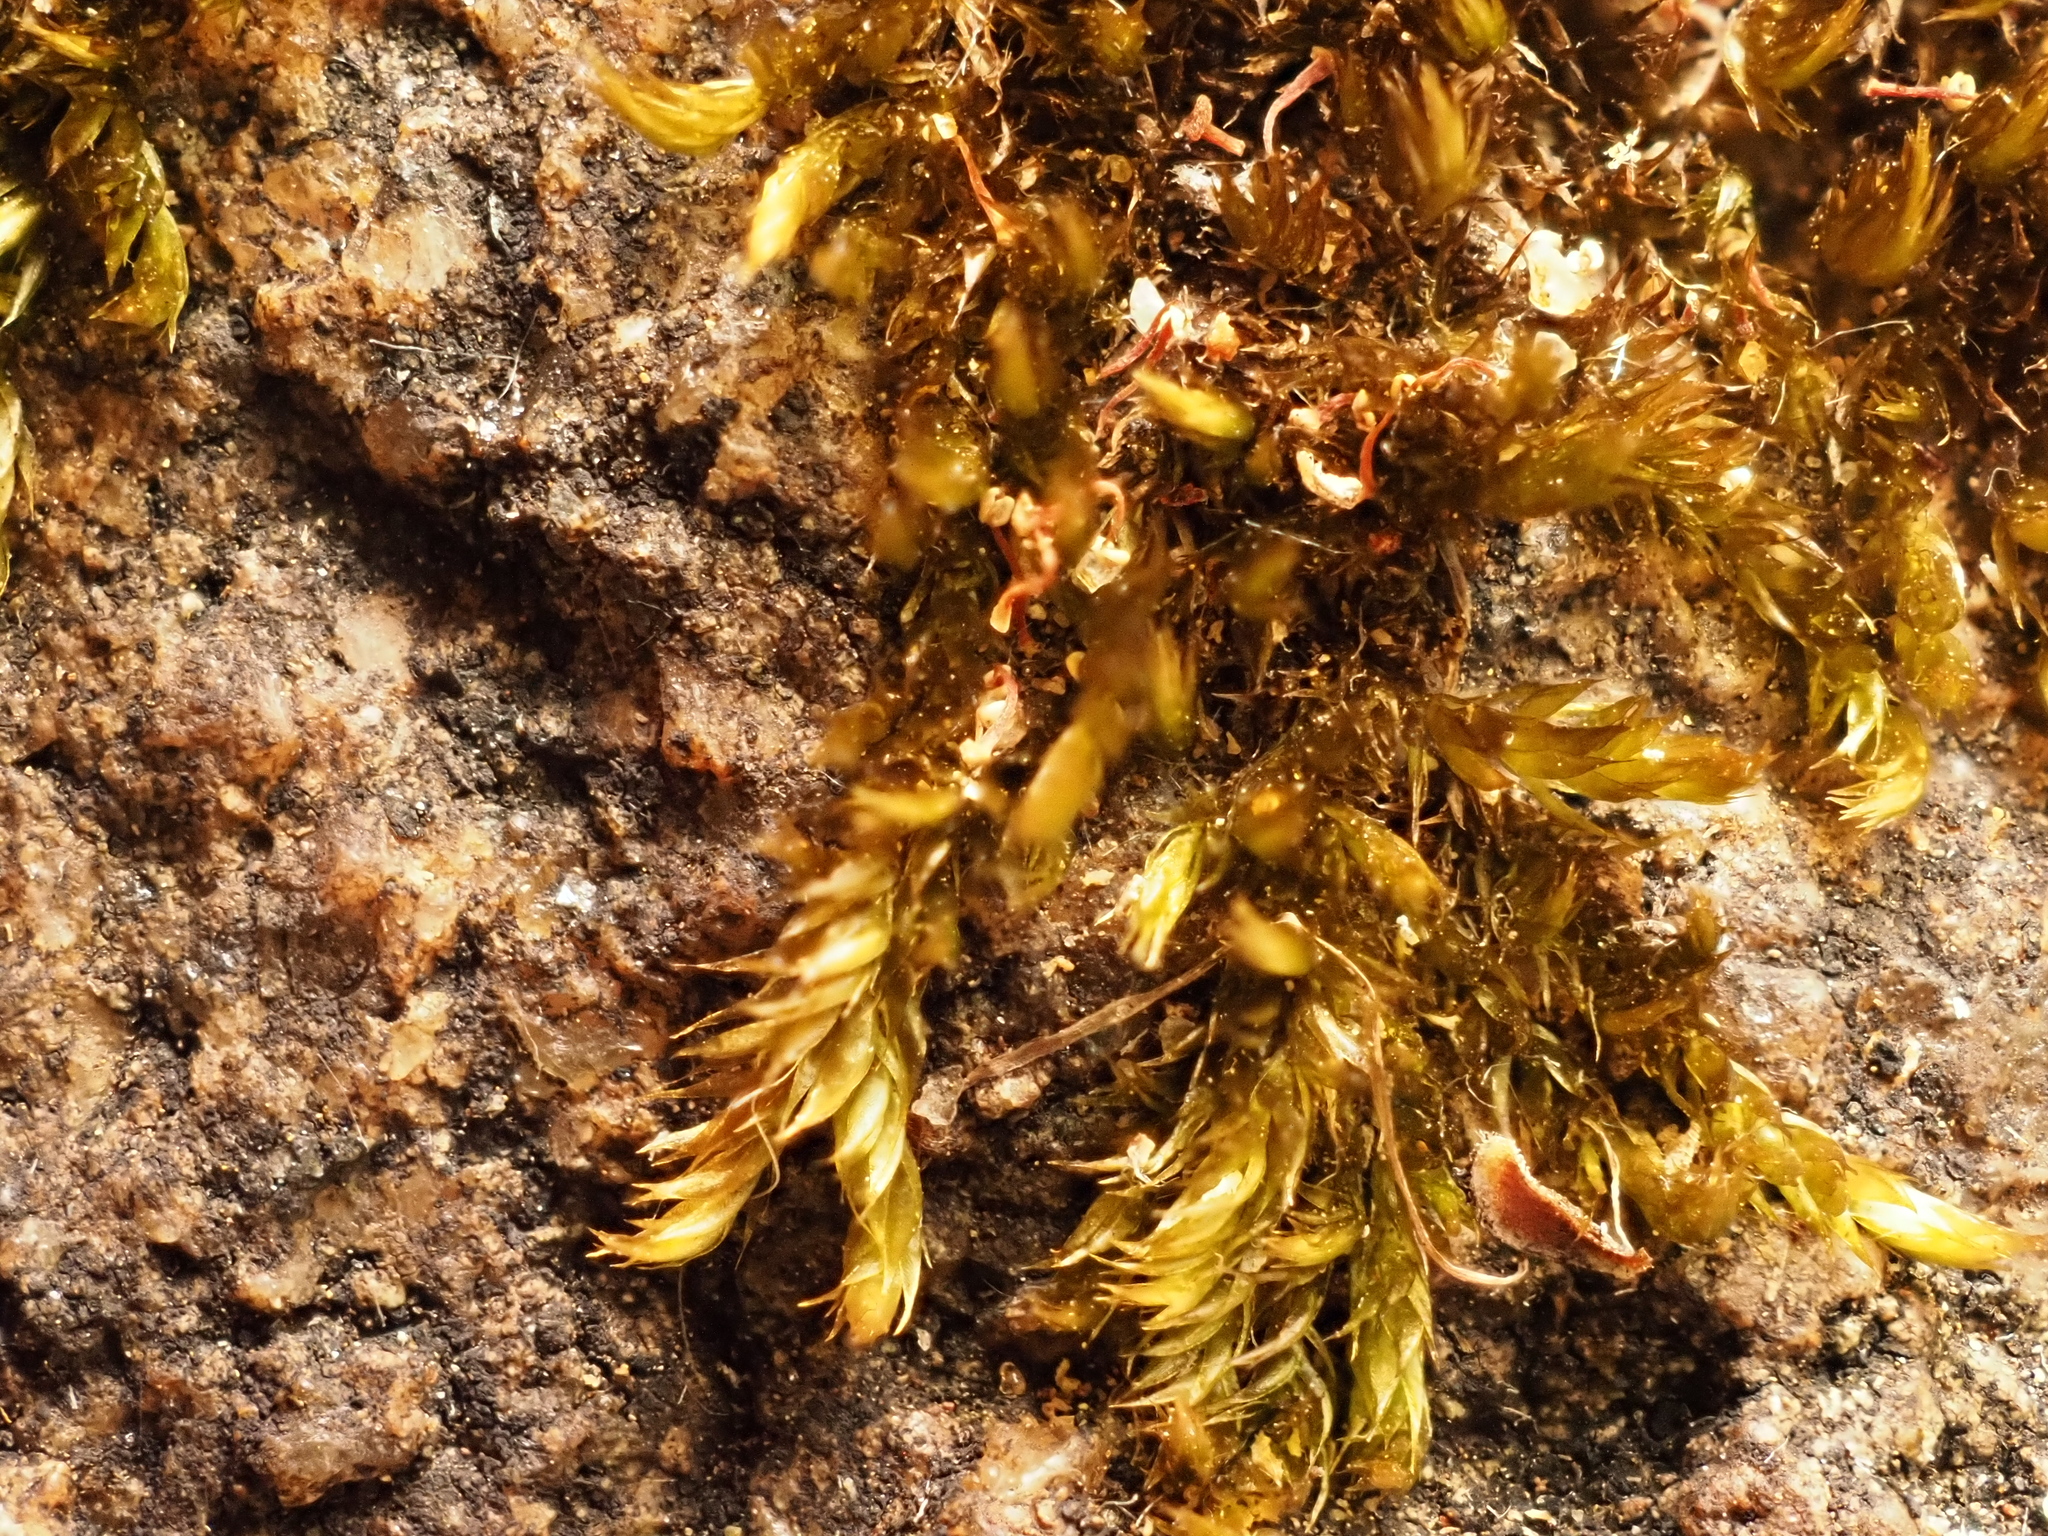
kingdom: Plantae
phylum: Bryophyta
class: Bryopsida
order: Hypnales
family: Sematophyllaceae
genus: Sematophyllum
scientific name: Sematophyllum homomallum
